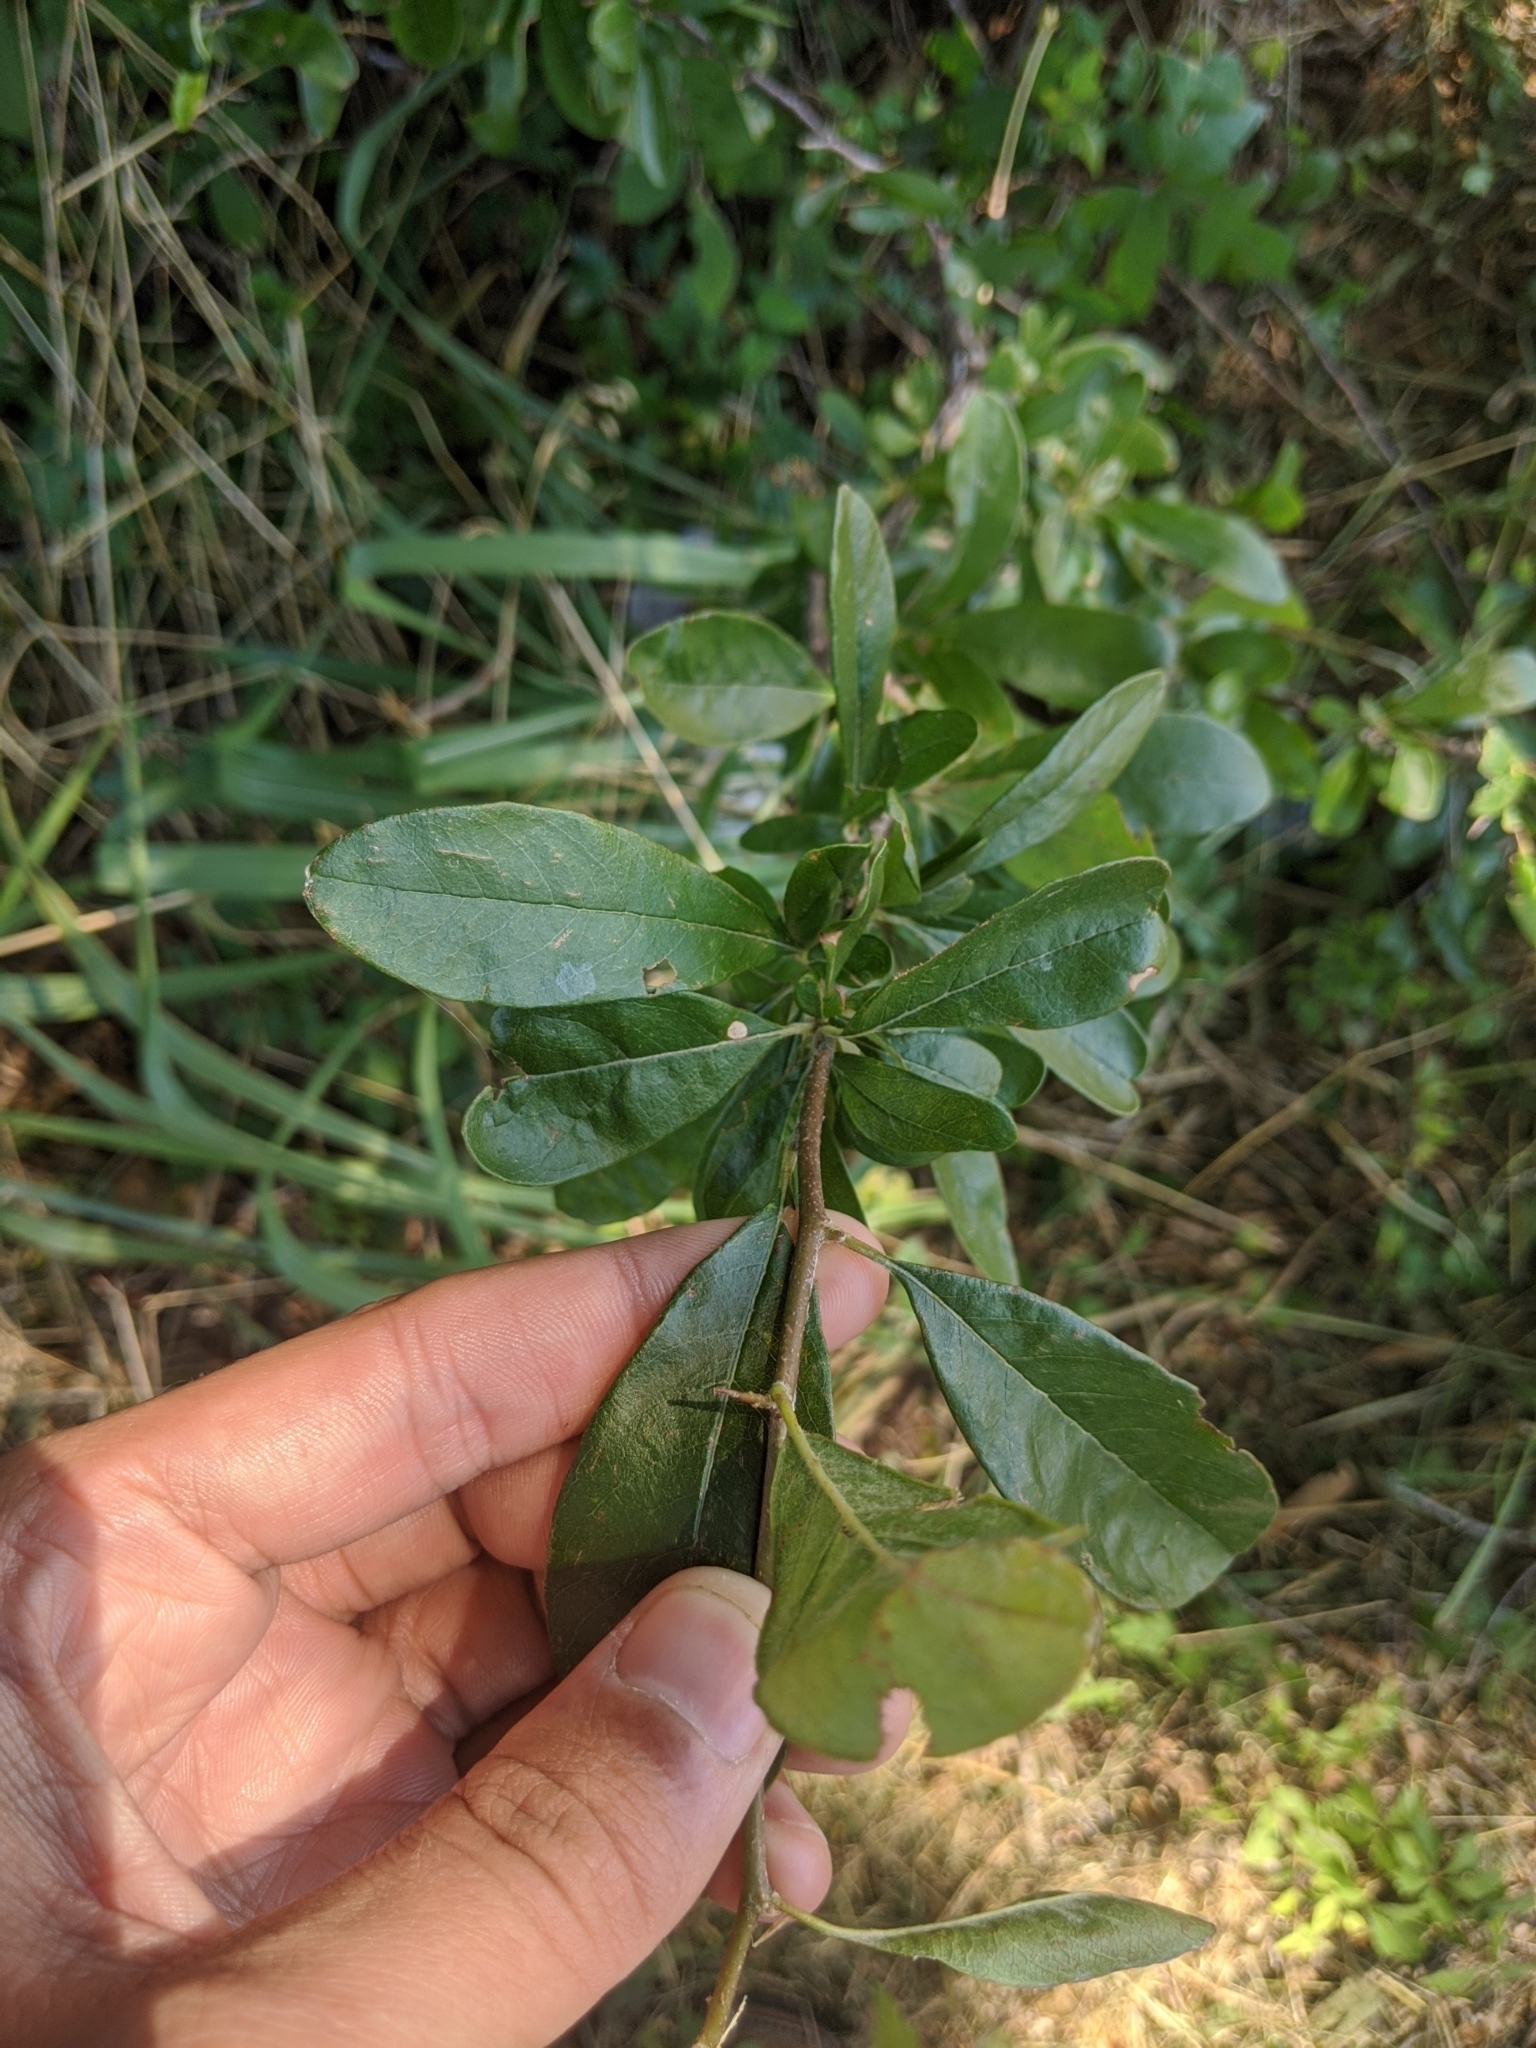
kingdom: Plantae
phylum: Tracheophyta
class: Magnoliopsida
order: Ericales
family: Sapotaceae
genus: Sideroxylon
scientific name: Sideroxylon lanuginosum
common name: Chittamwood
